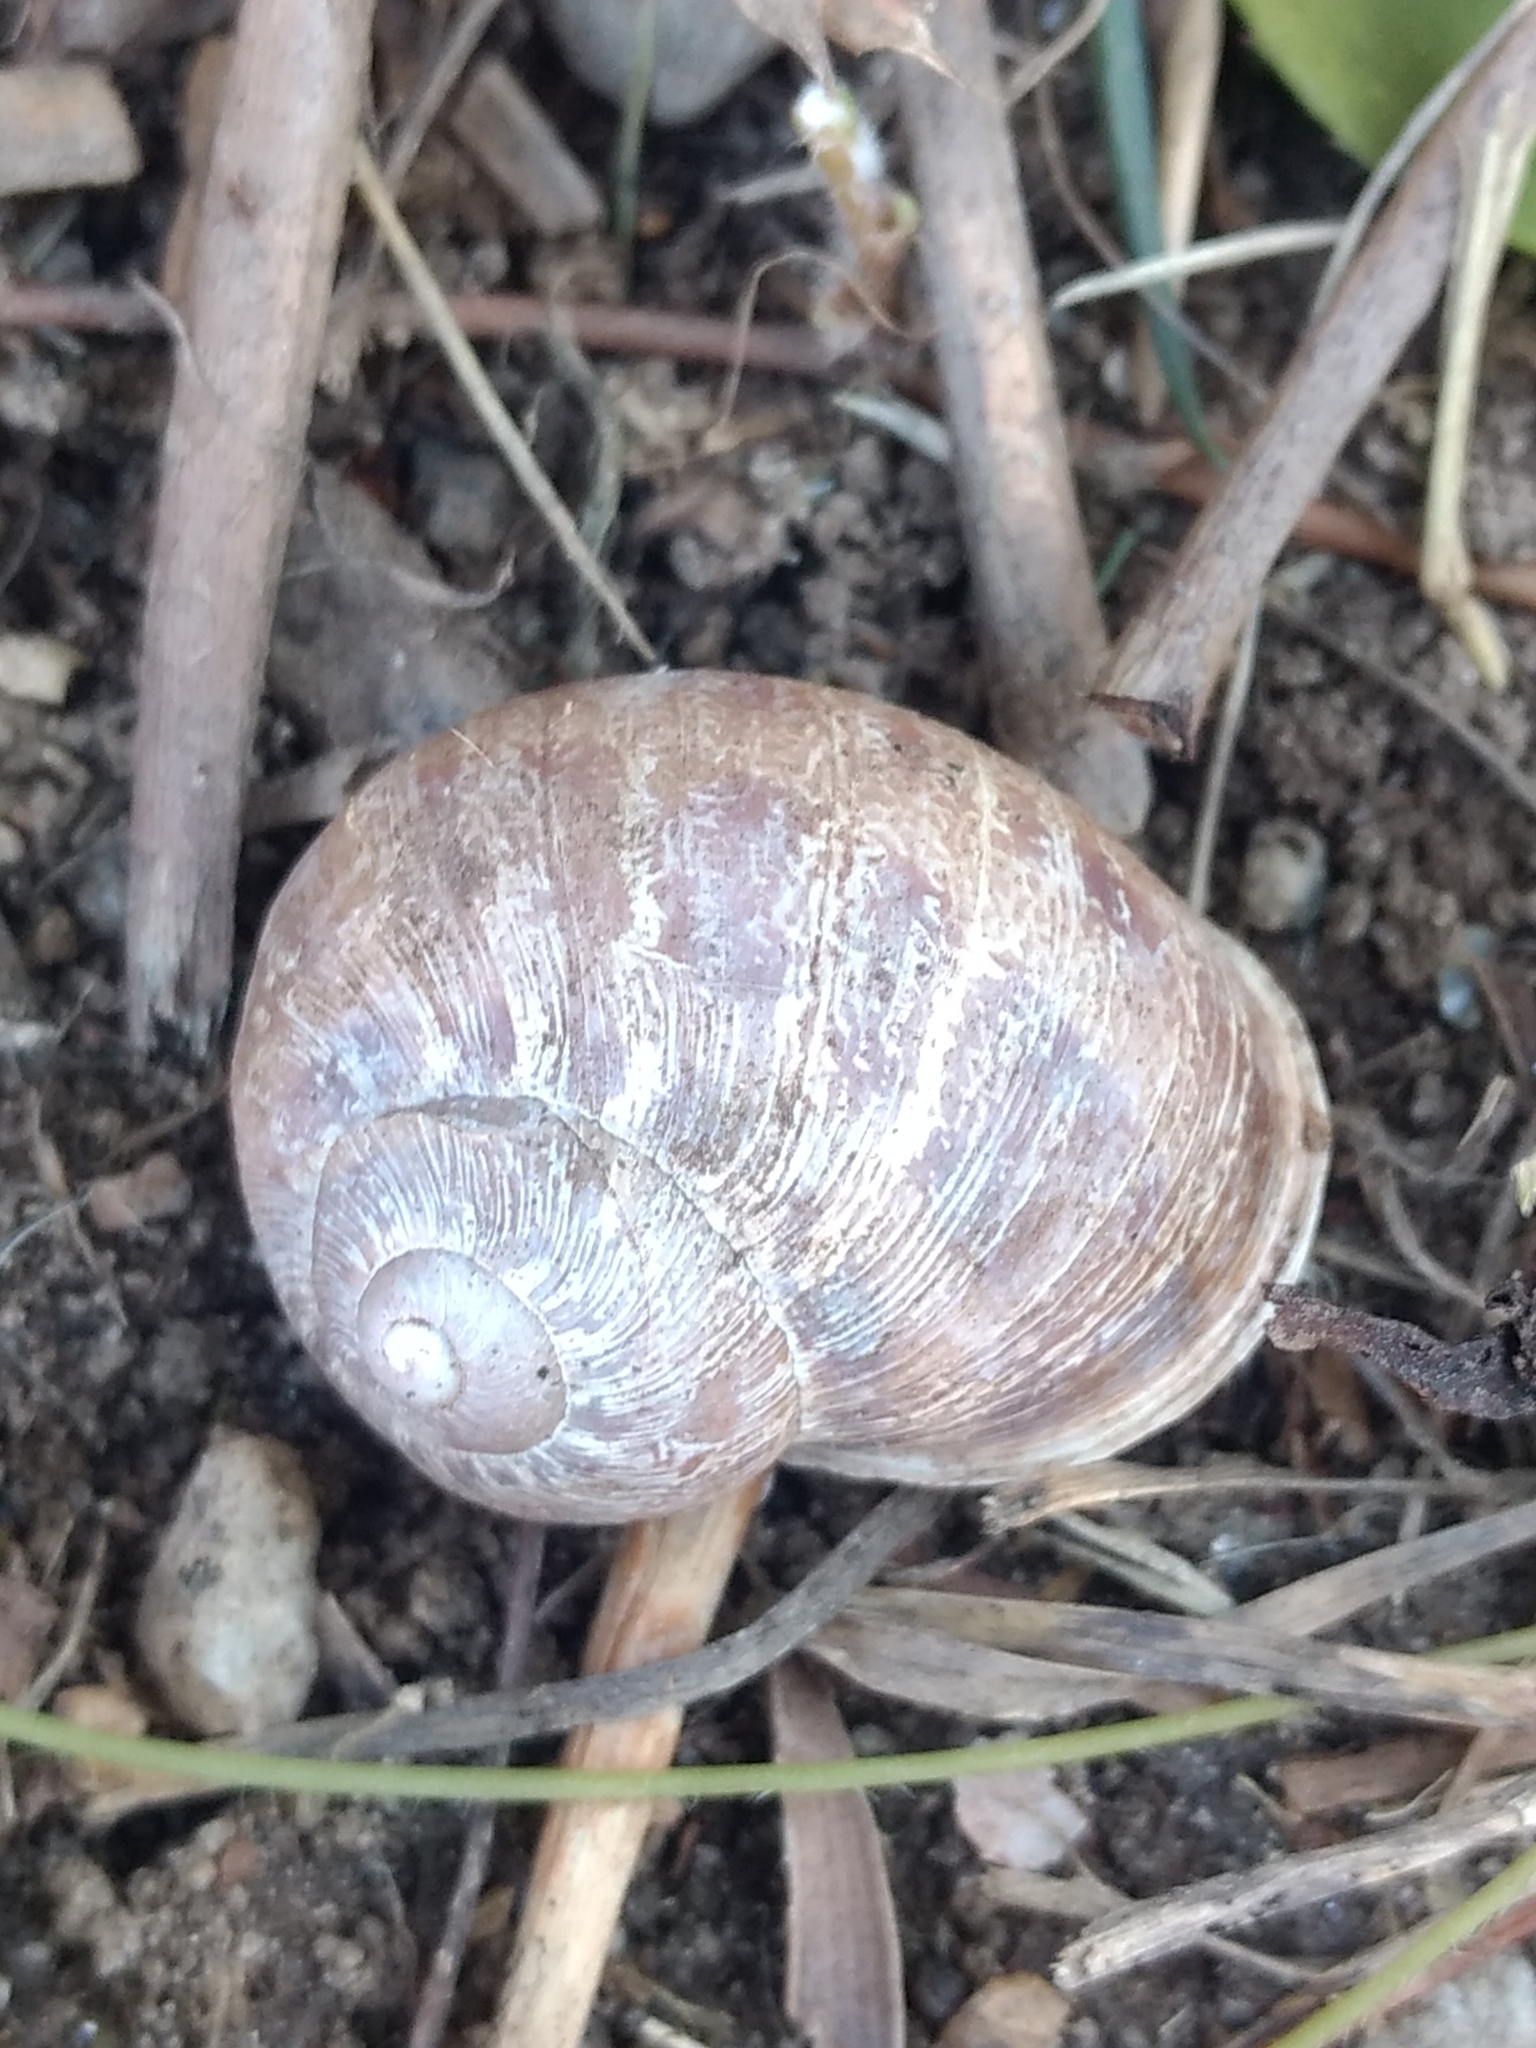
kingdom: Animalia
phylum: Mollusca
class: Gastropoda
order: Stylommatophora
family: Helicidae
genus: Cornu
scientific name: Cornu aspersum
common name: Brown garden snail
